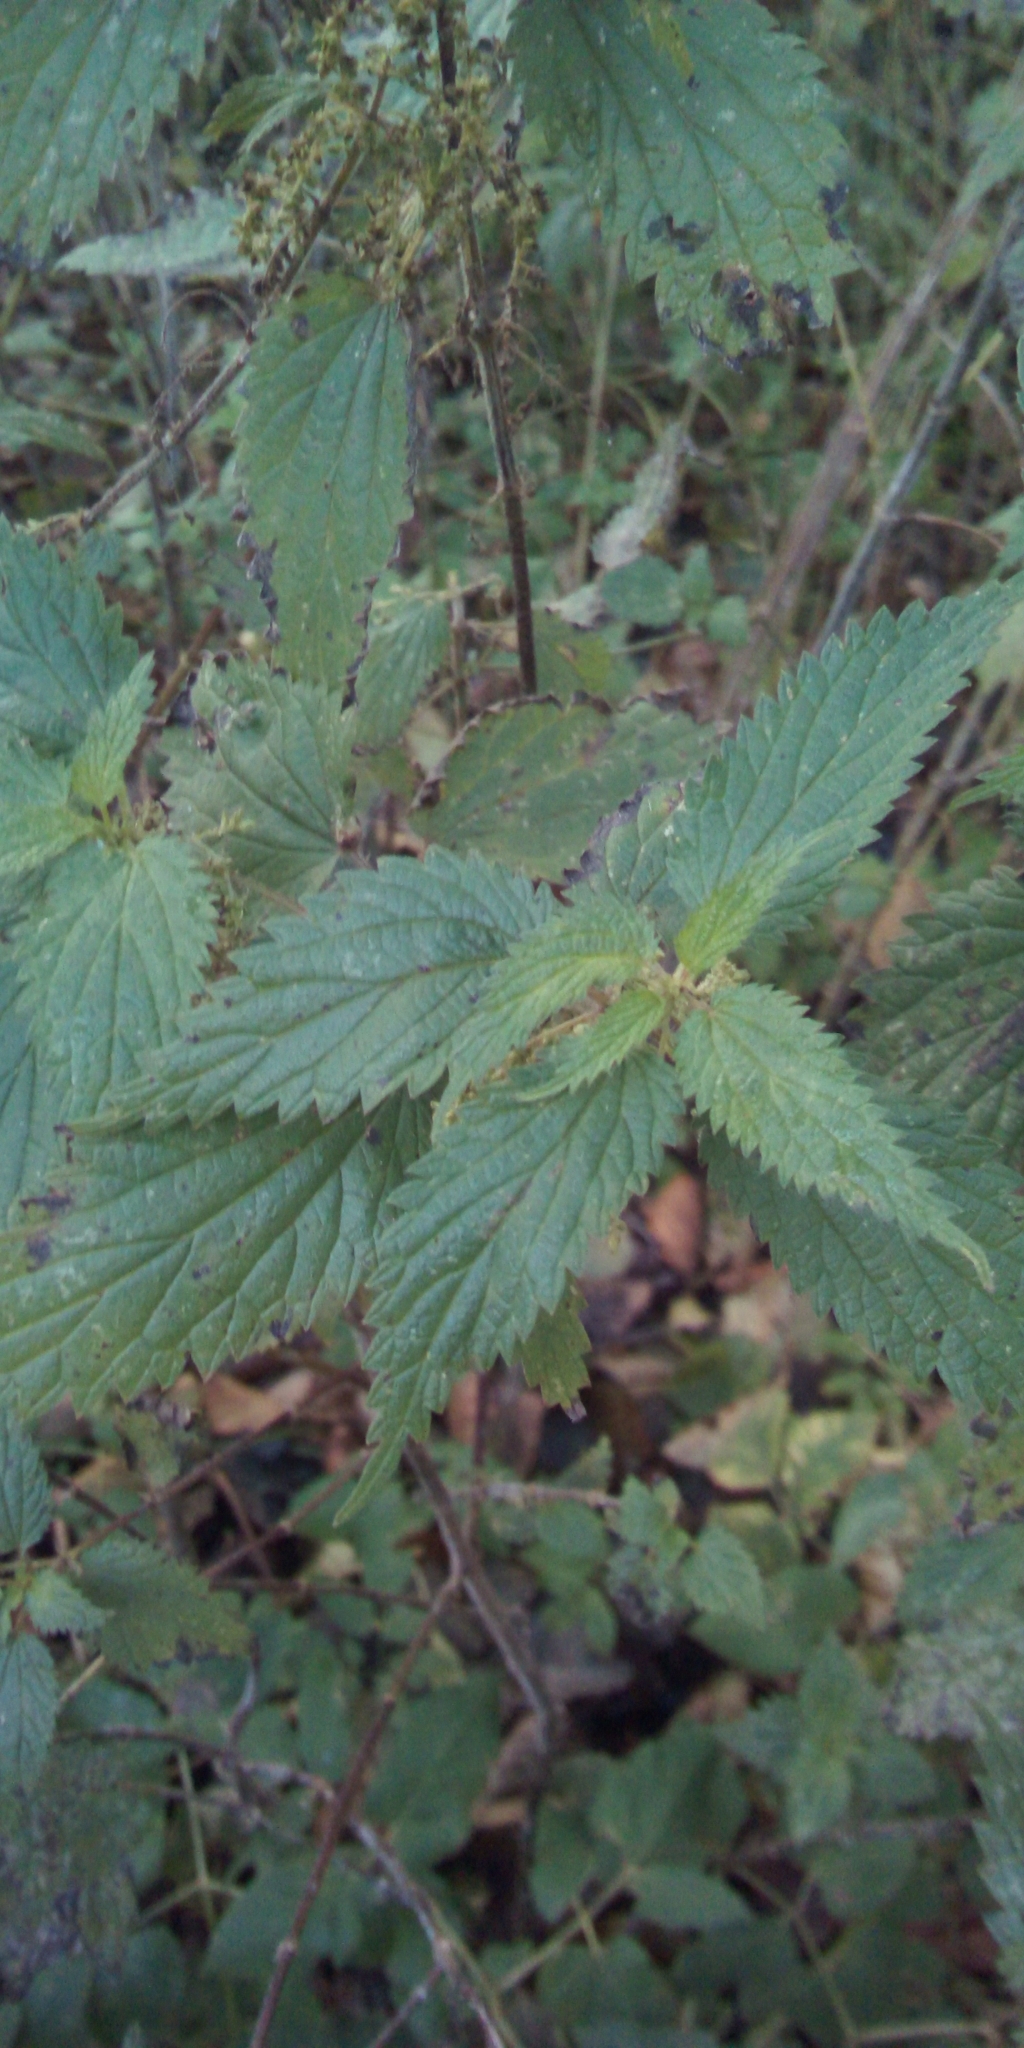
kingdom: Plantae
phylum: Tracheophyta
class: Magnoliopsida
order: Rosales
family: Urticaceae
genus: Urtica
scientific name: Urtica dioica
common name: Common nettle
